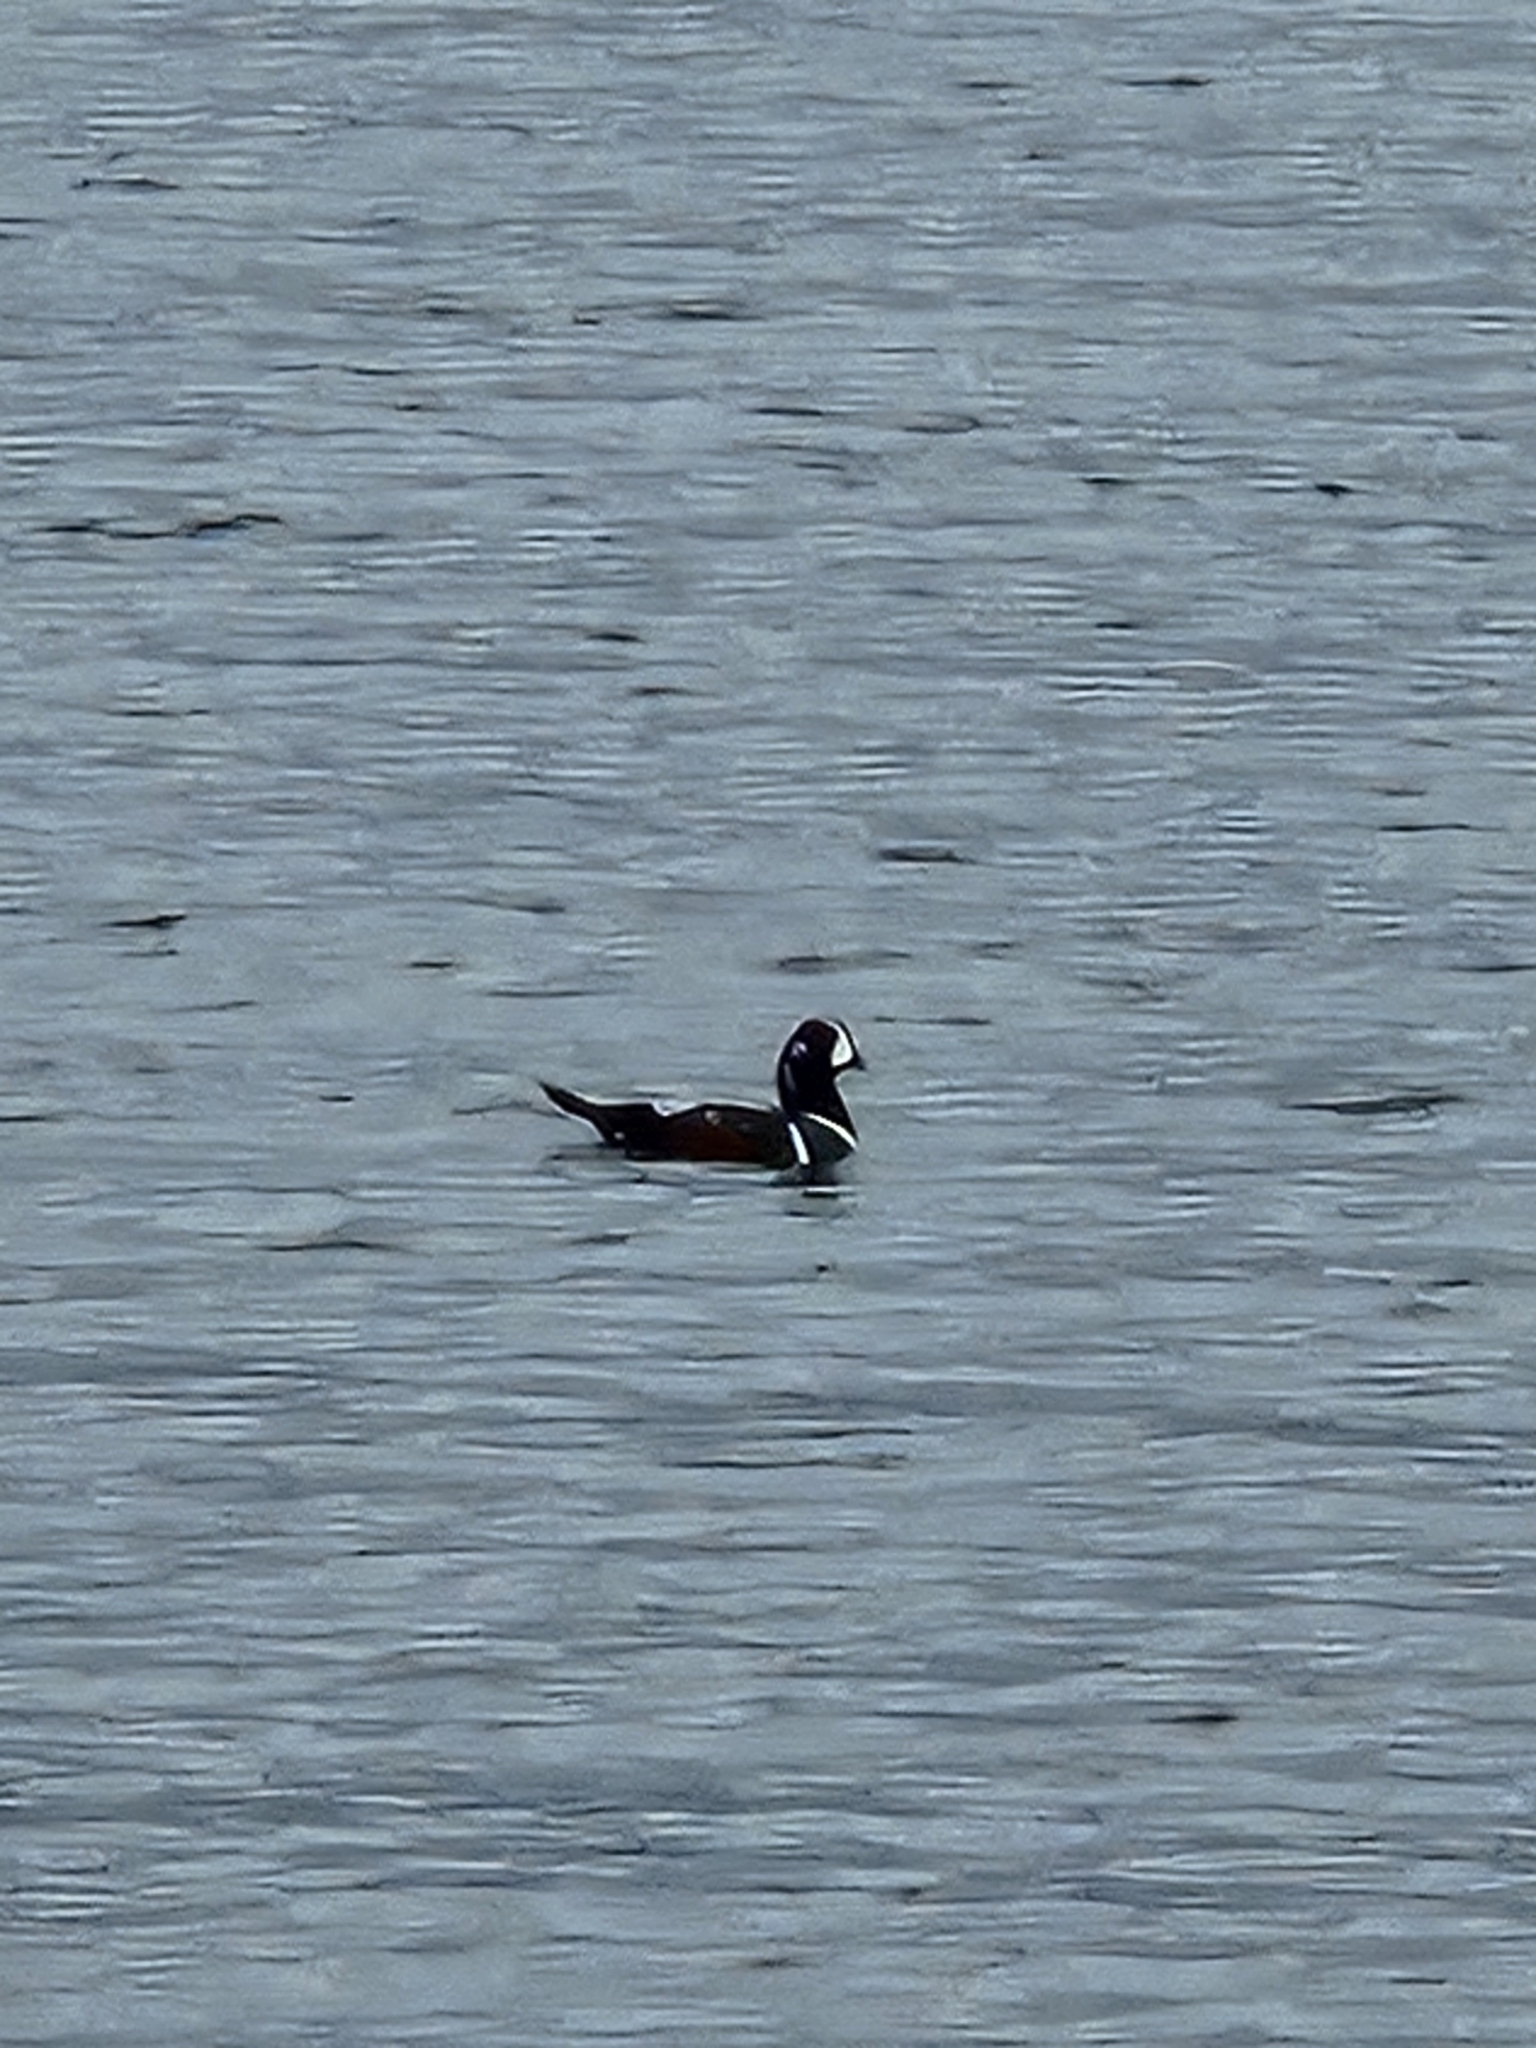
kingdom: Animalia
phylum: Chordata
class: Aves
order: Anseriformes
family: Anatidae
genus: Histrionicus
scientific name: Histrionicus histrionicus
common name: Harlequin duck
